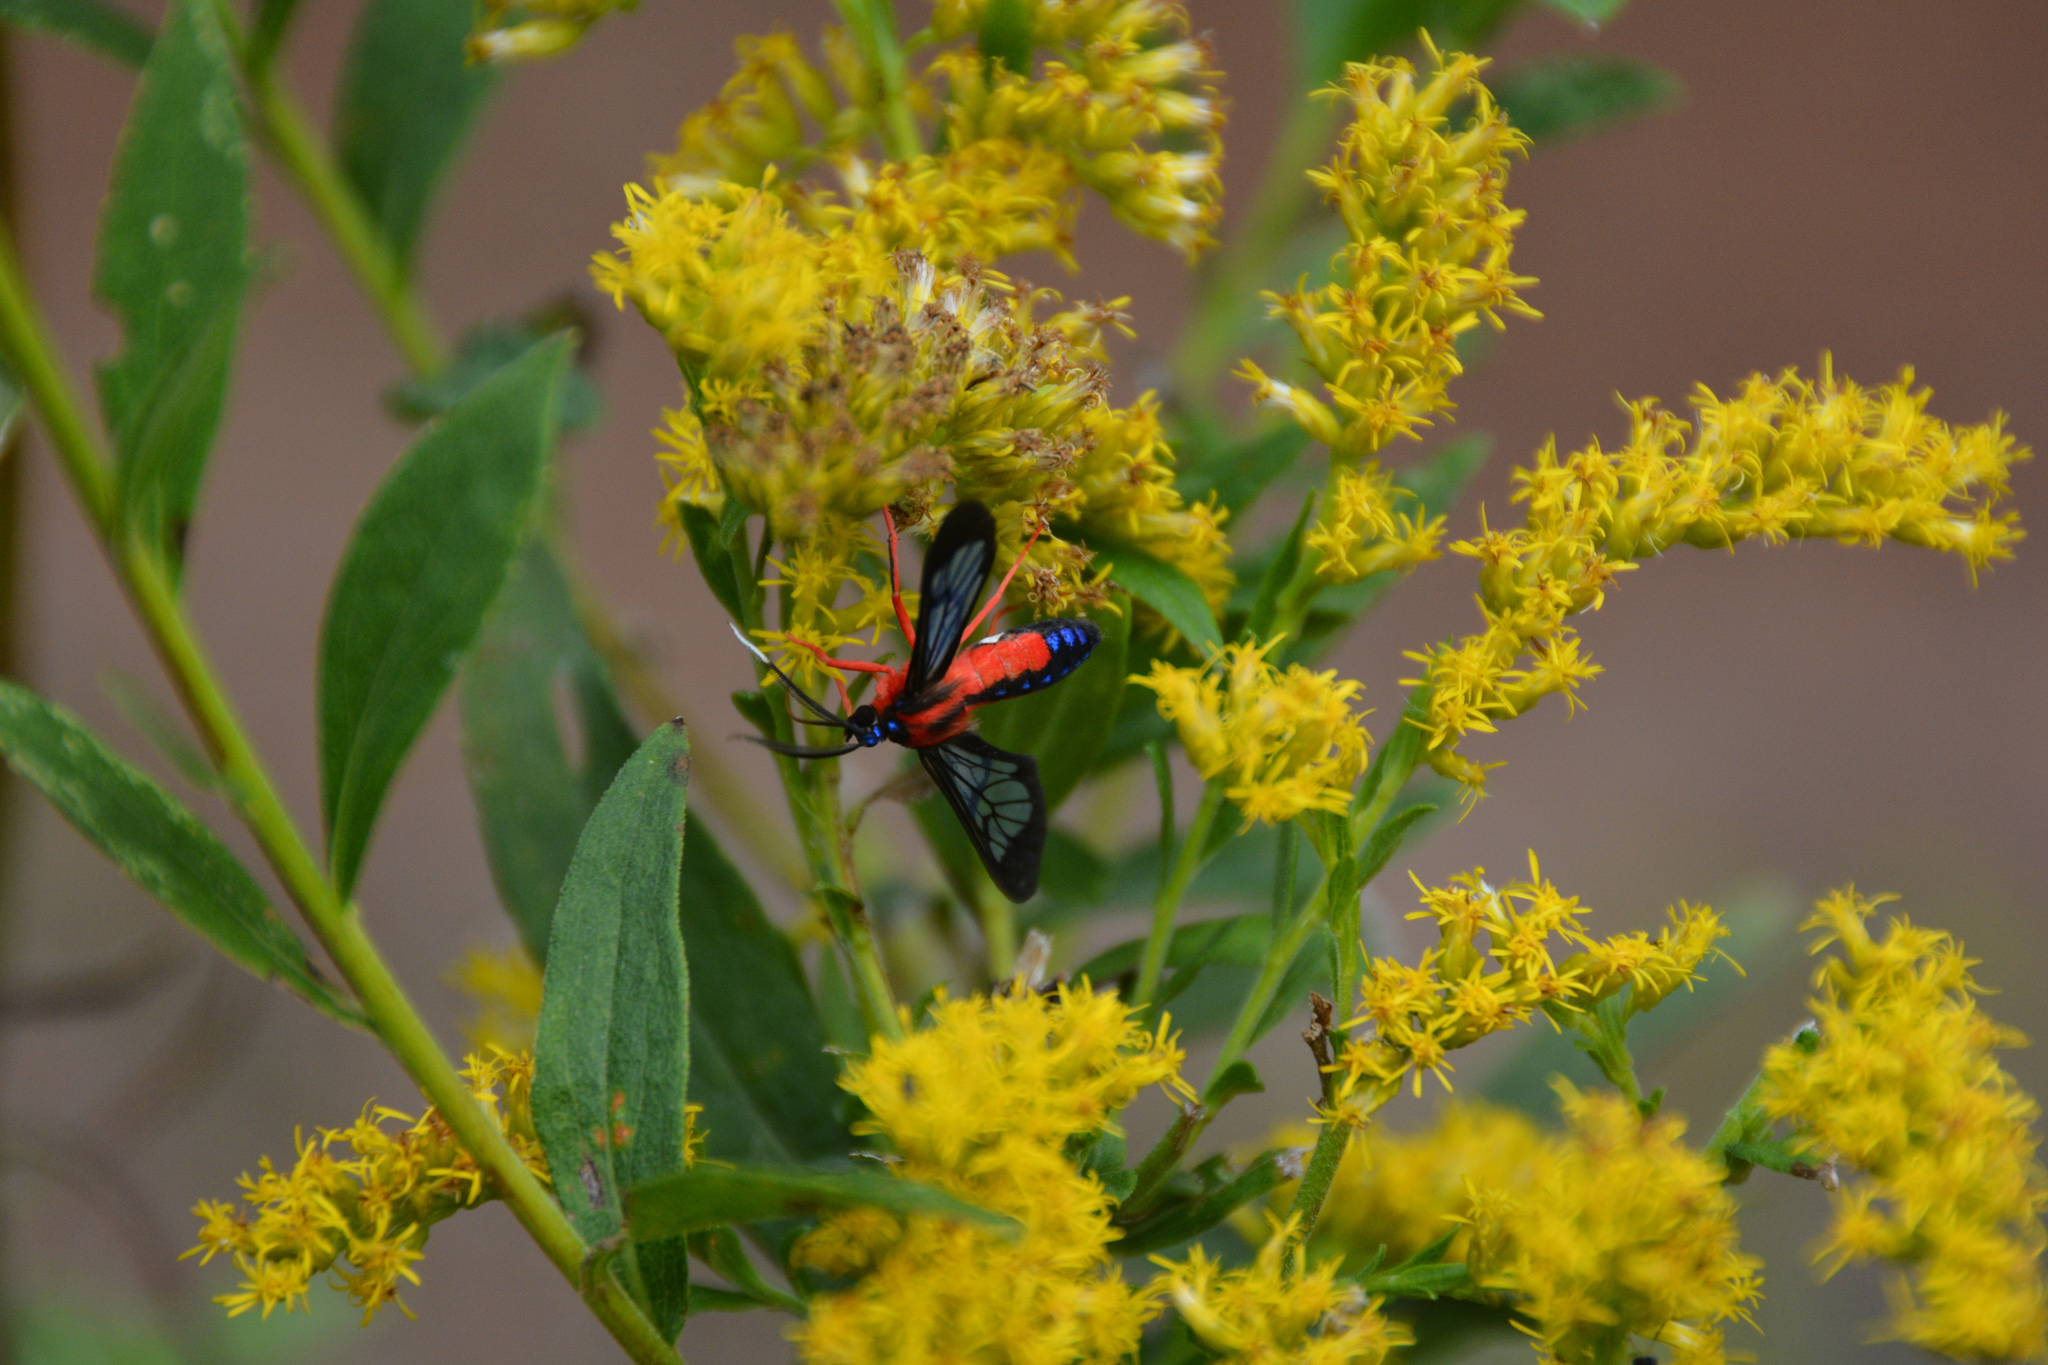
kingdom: Animalia
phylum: Arthropoda
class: Insecta
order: Lepidoptera
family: Erebidae
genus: Cosmosoma
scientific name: Cosmosoma myrodora
